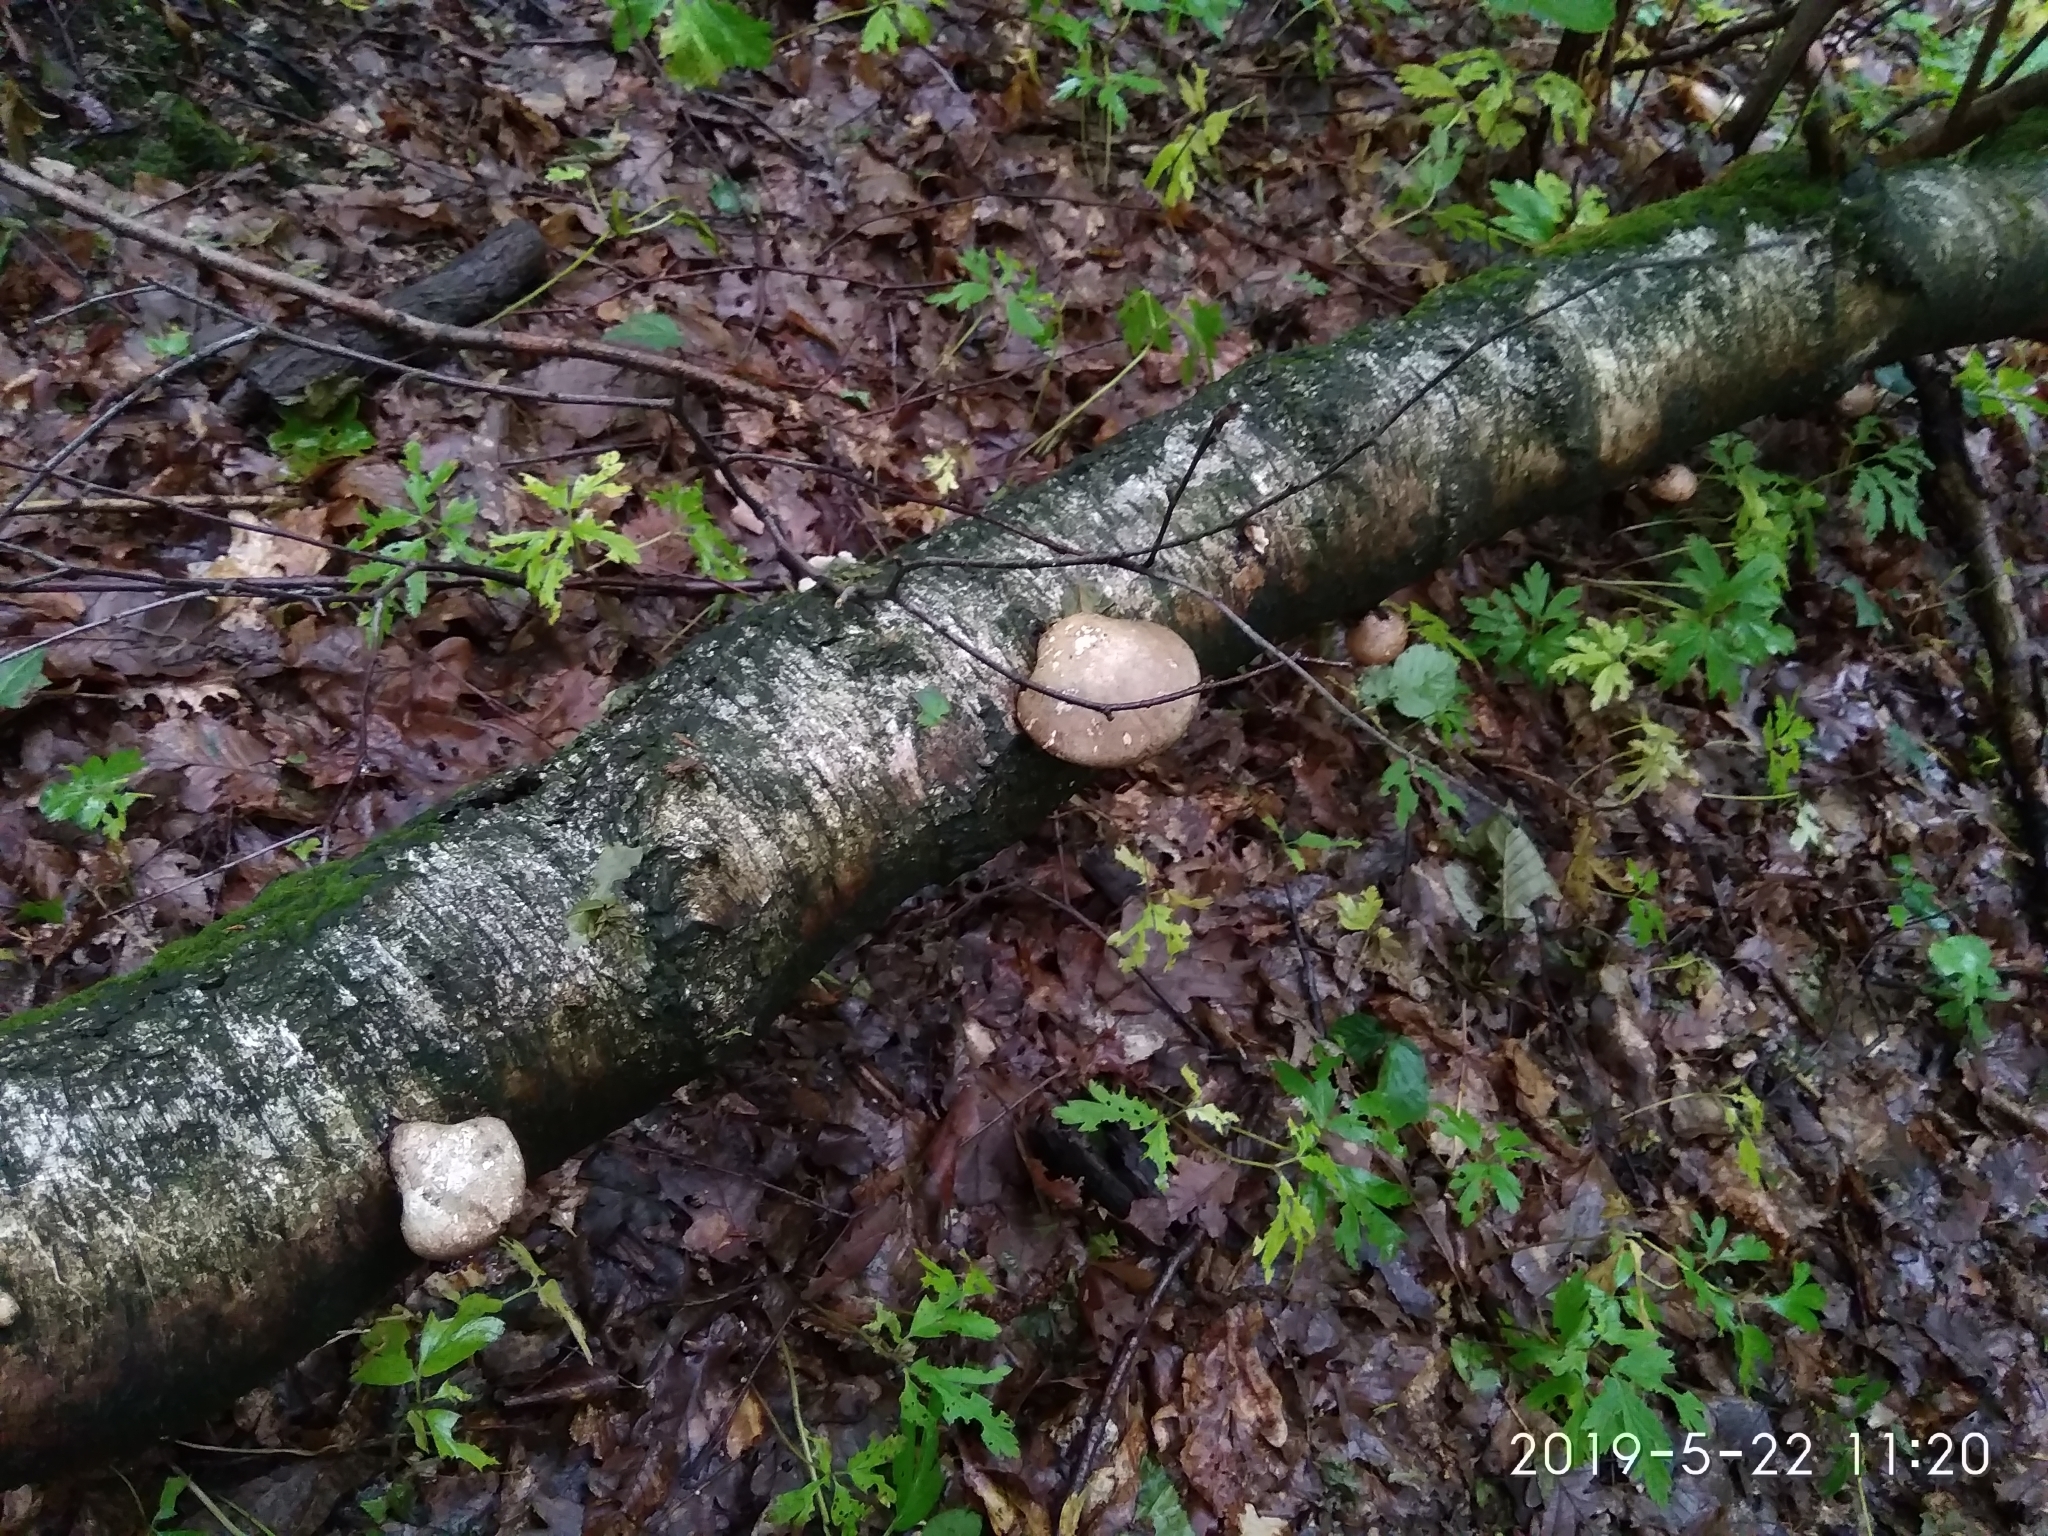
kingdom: Fungi
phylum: Basidiomycota
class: Agaricomycetes
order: Polyporales
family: Fomitopsidaceae
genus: Fomitopsis
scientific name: Fomitopsis betulina
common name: Birch polypore
